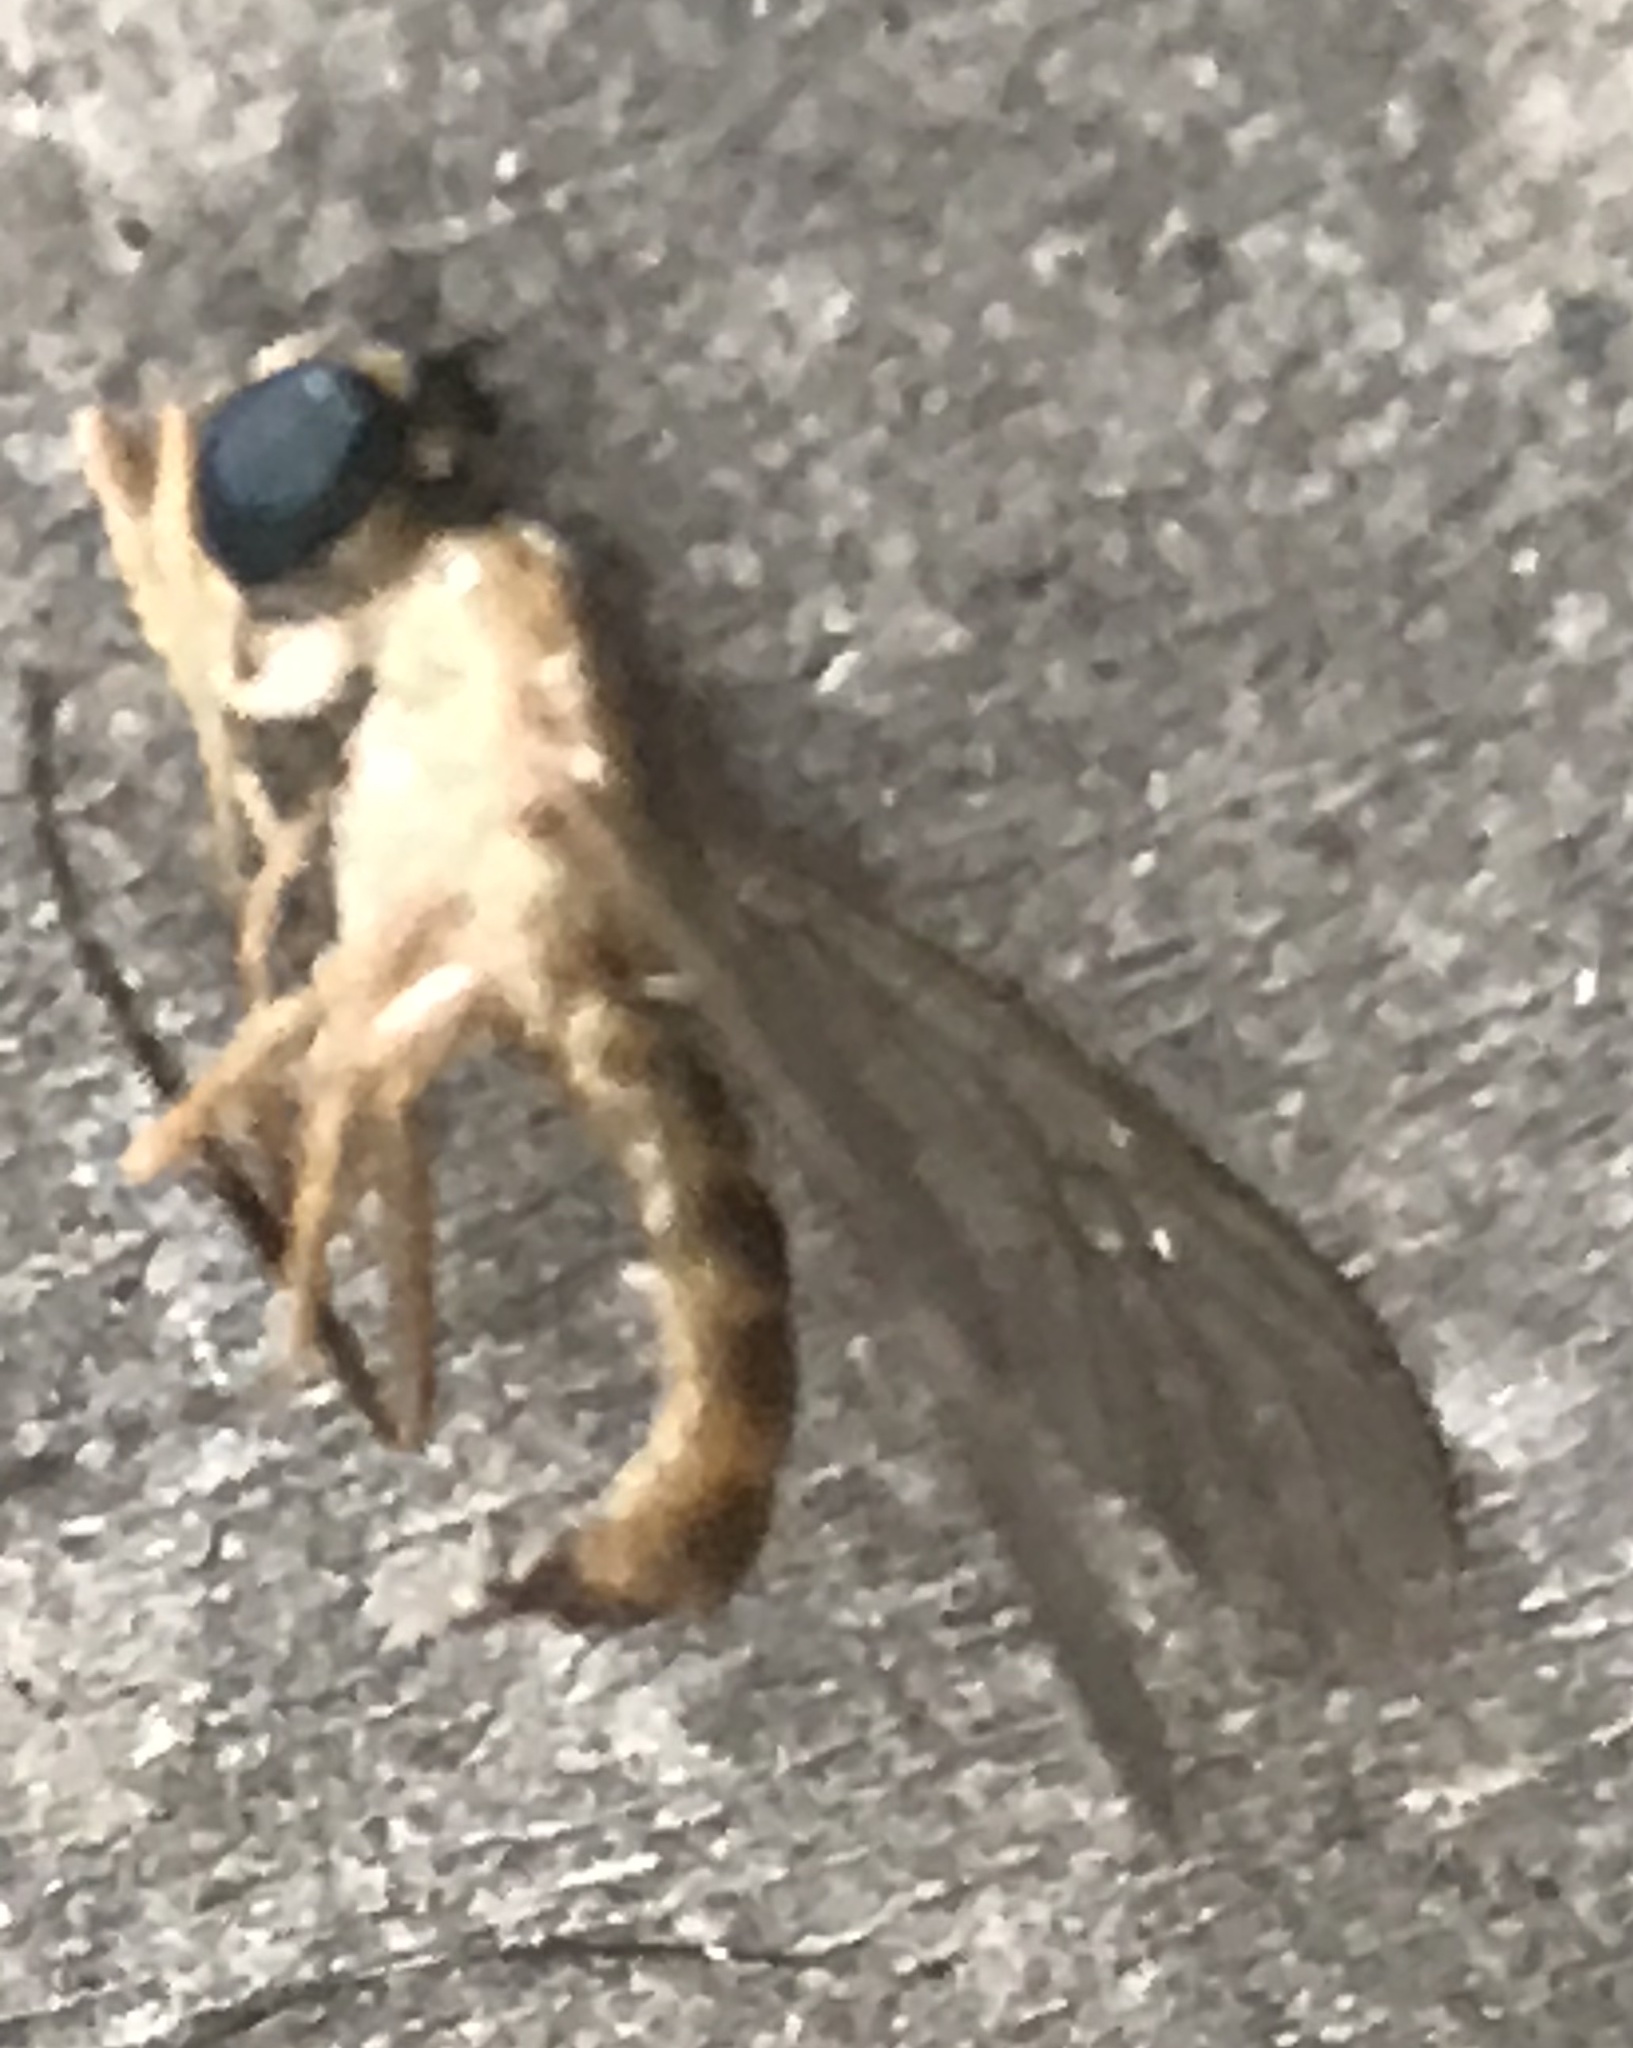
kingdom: Animalia
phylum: Arthropoda
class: Insecta
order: Diptera
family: Stratiomyidae
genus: Ptecticus
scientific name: Ptecticus trivittatus
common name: Compost fly
